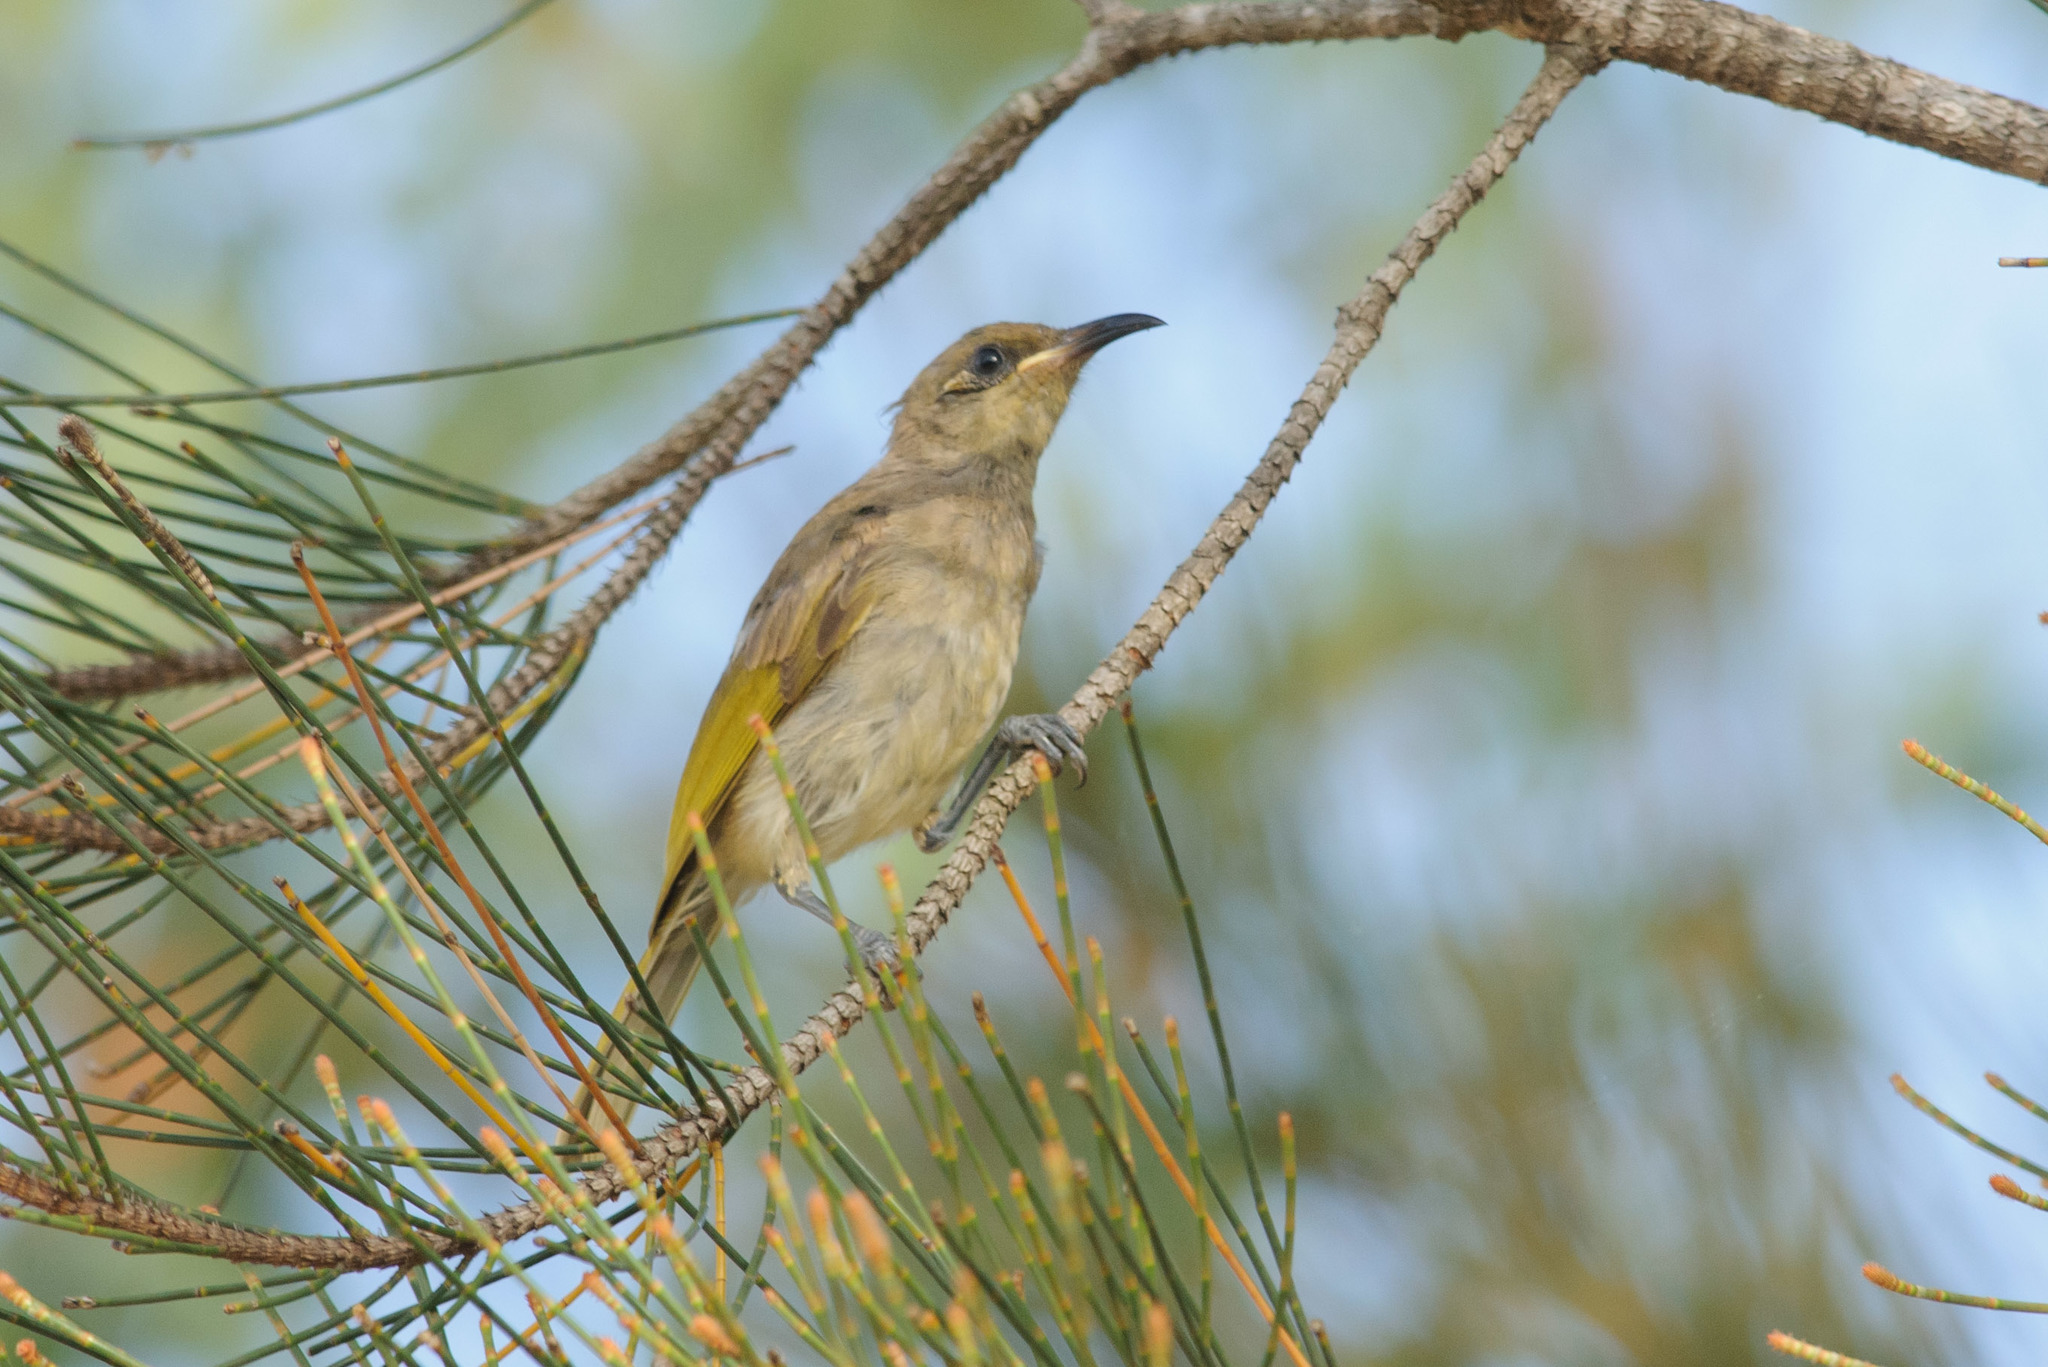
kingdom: Animalia
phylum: Chordata
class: Aves
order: Passeriformes
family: Meliphagidae
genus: Lichmera
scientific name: Lichmera indistincta
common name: Brown honeyeater
